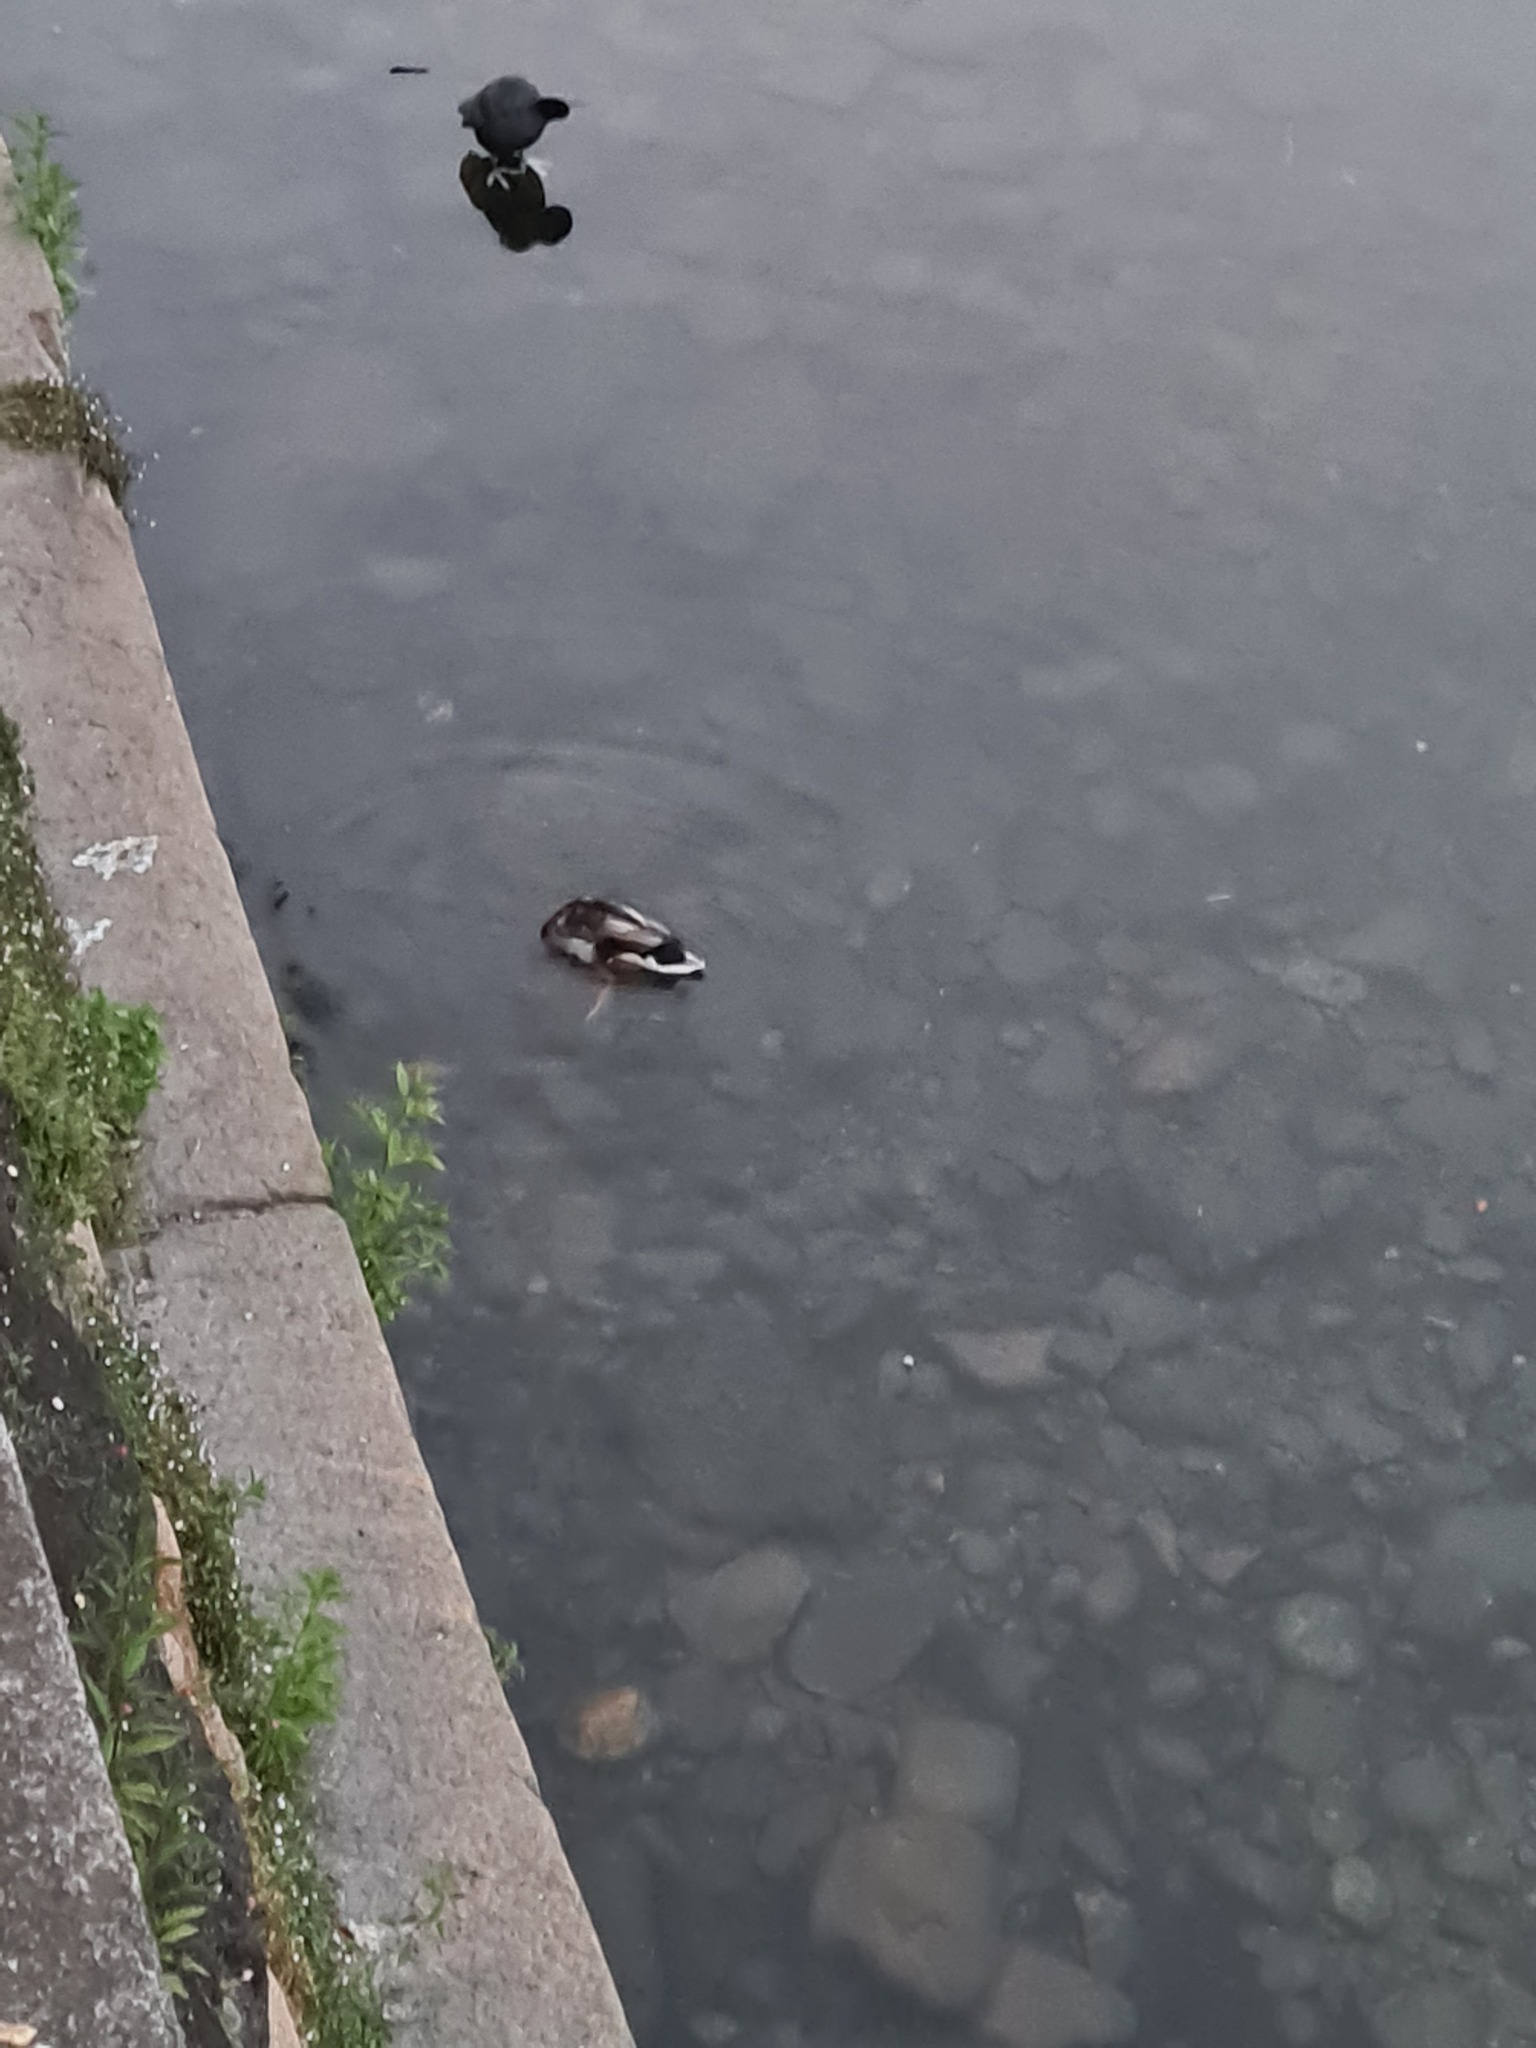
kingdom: Animalia
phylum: Chordata
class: Aves
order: Anseriformes
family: Anatidae
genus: Anas
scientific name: Anas platyrhynchos
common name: Mallard
